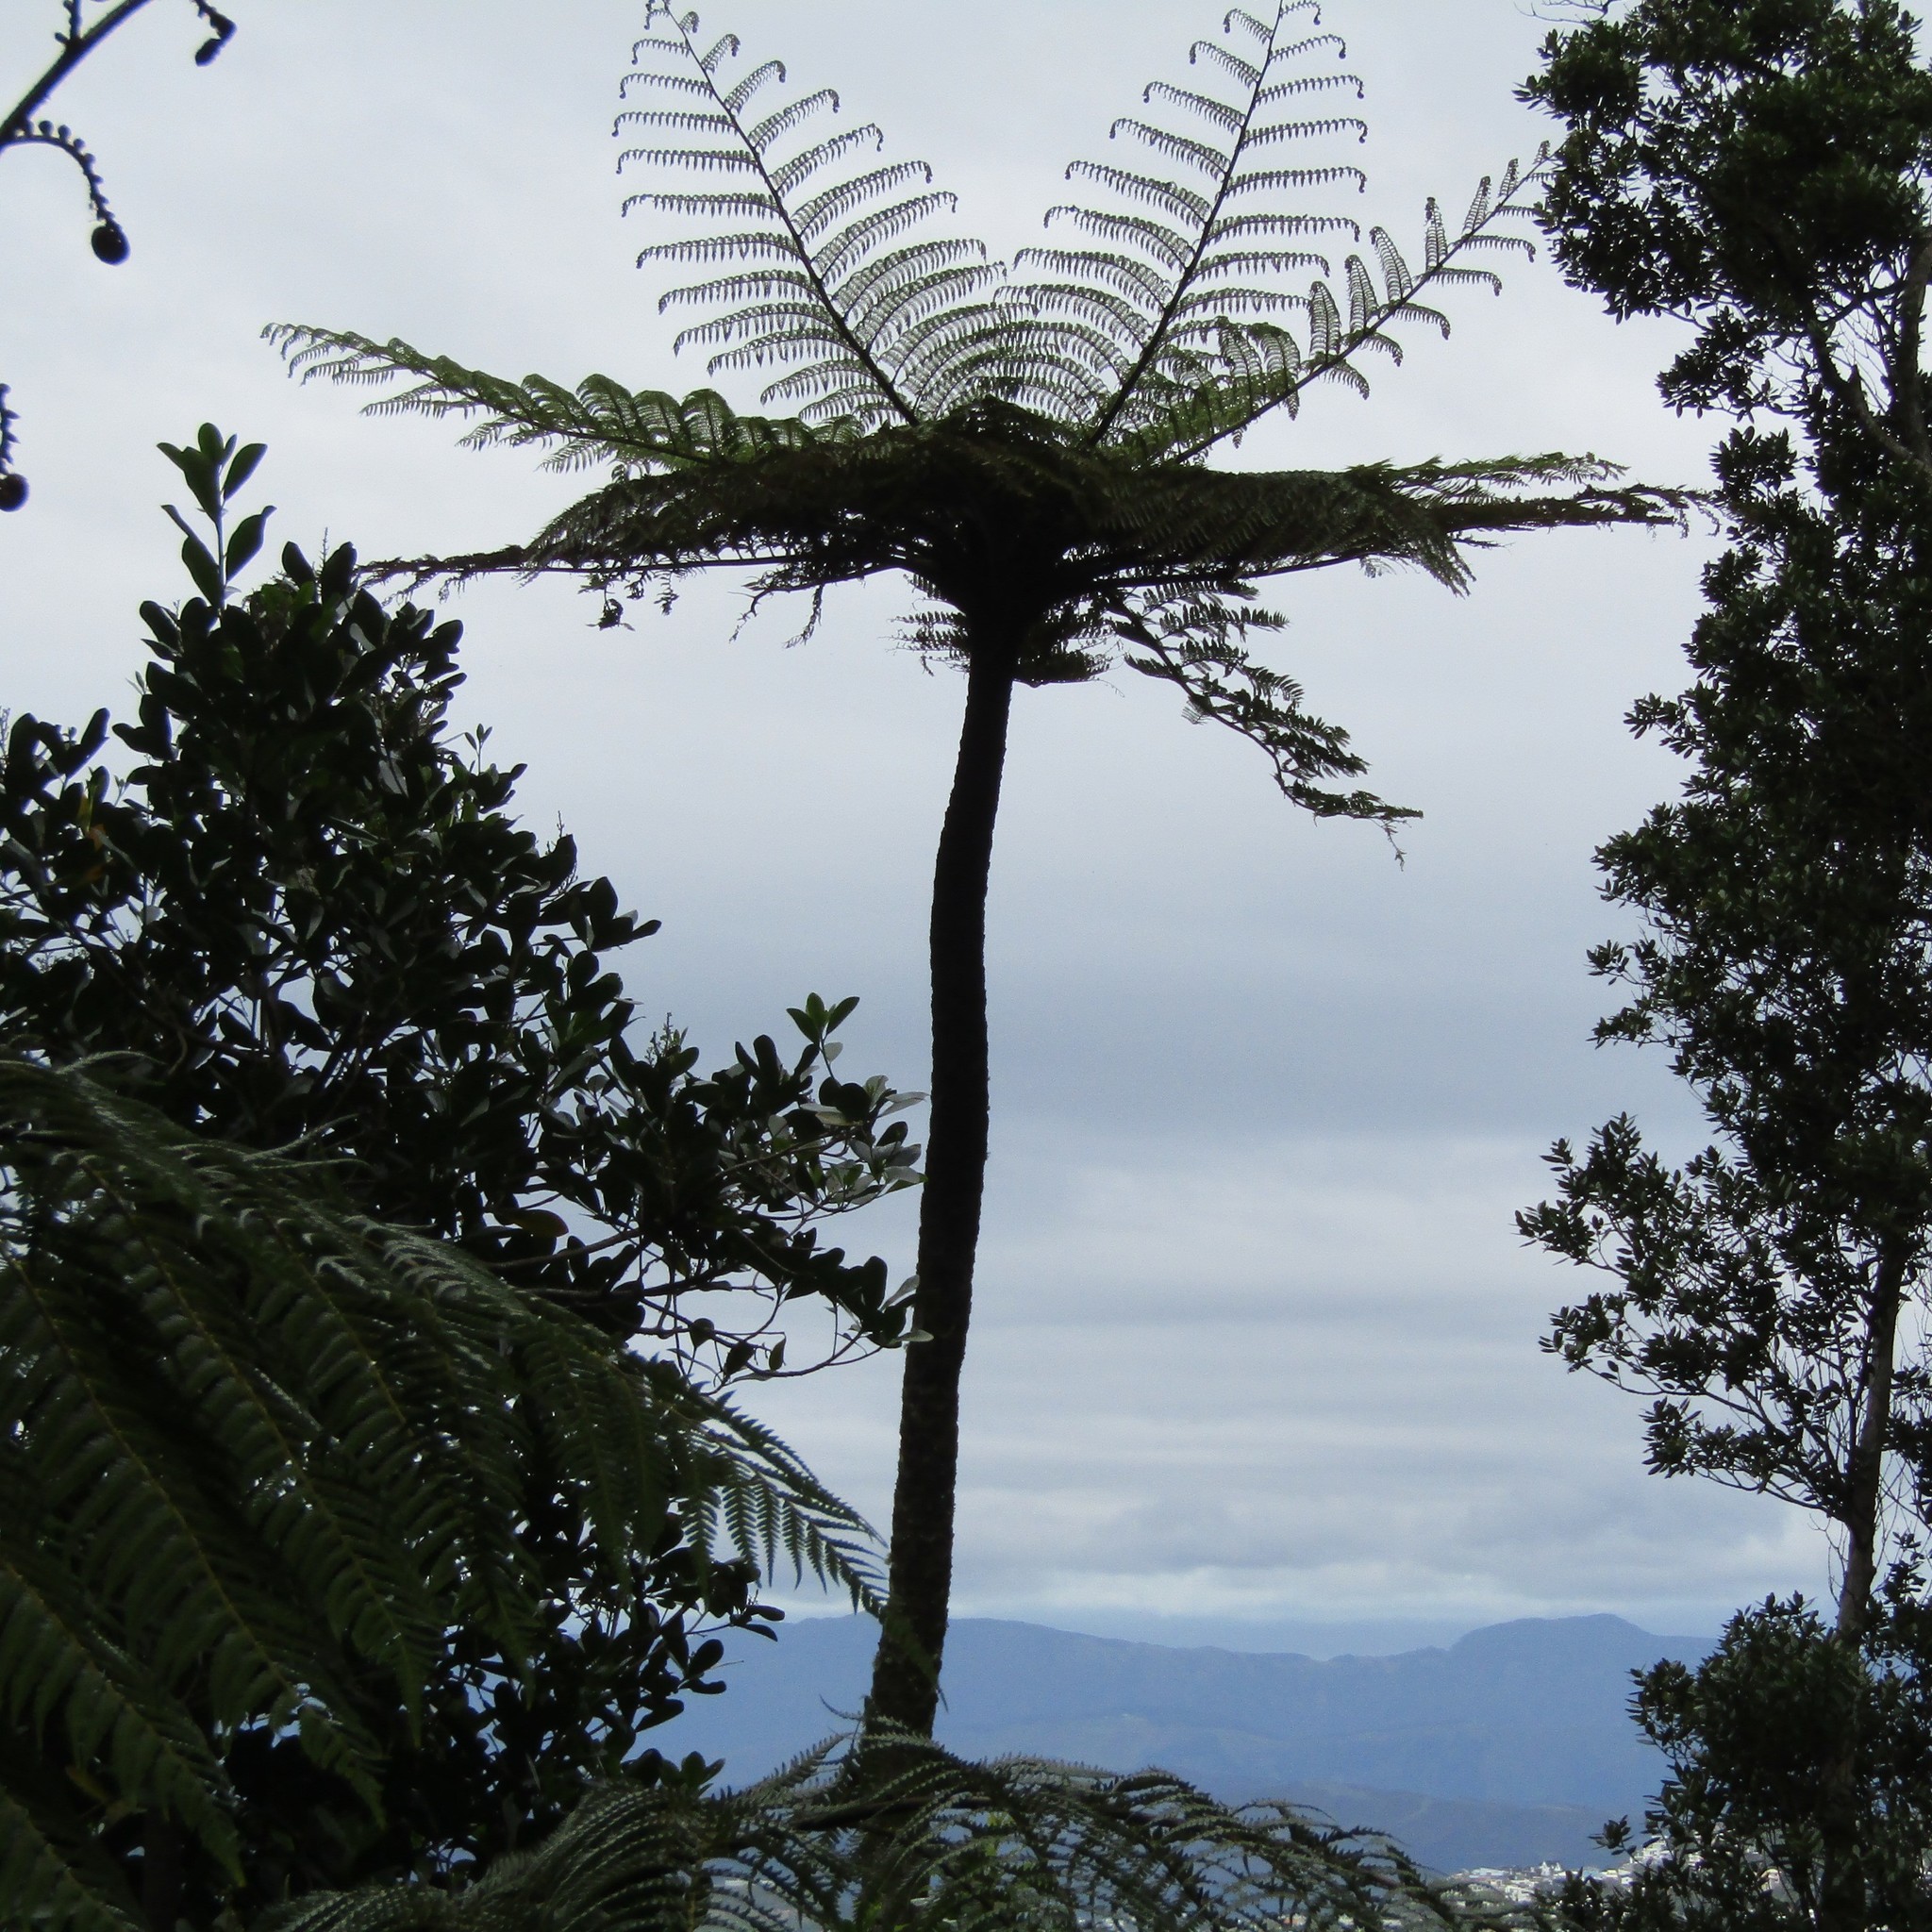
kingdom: Plantae
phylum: Tracheophyta
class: Polypodiopsida
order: Cyatheales
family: Cyatheaceae
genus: Cyathea
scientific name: Cyathea cunninghamii
